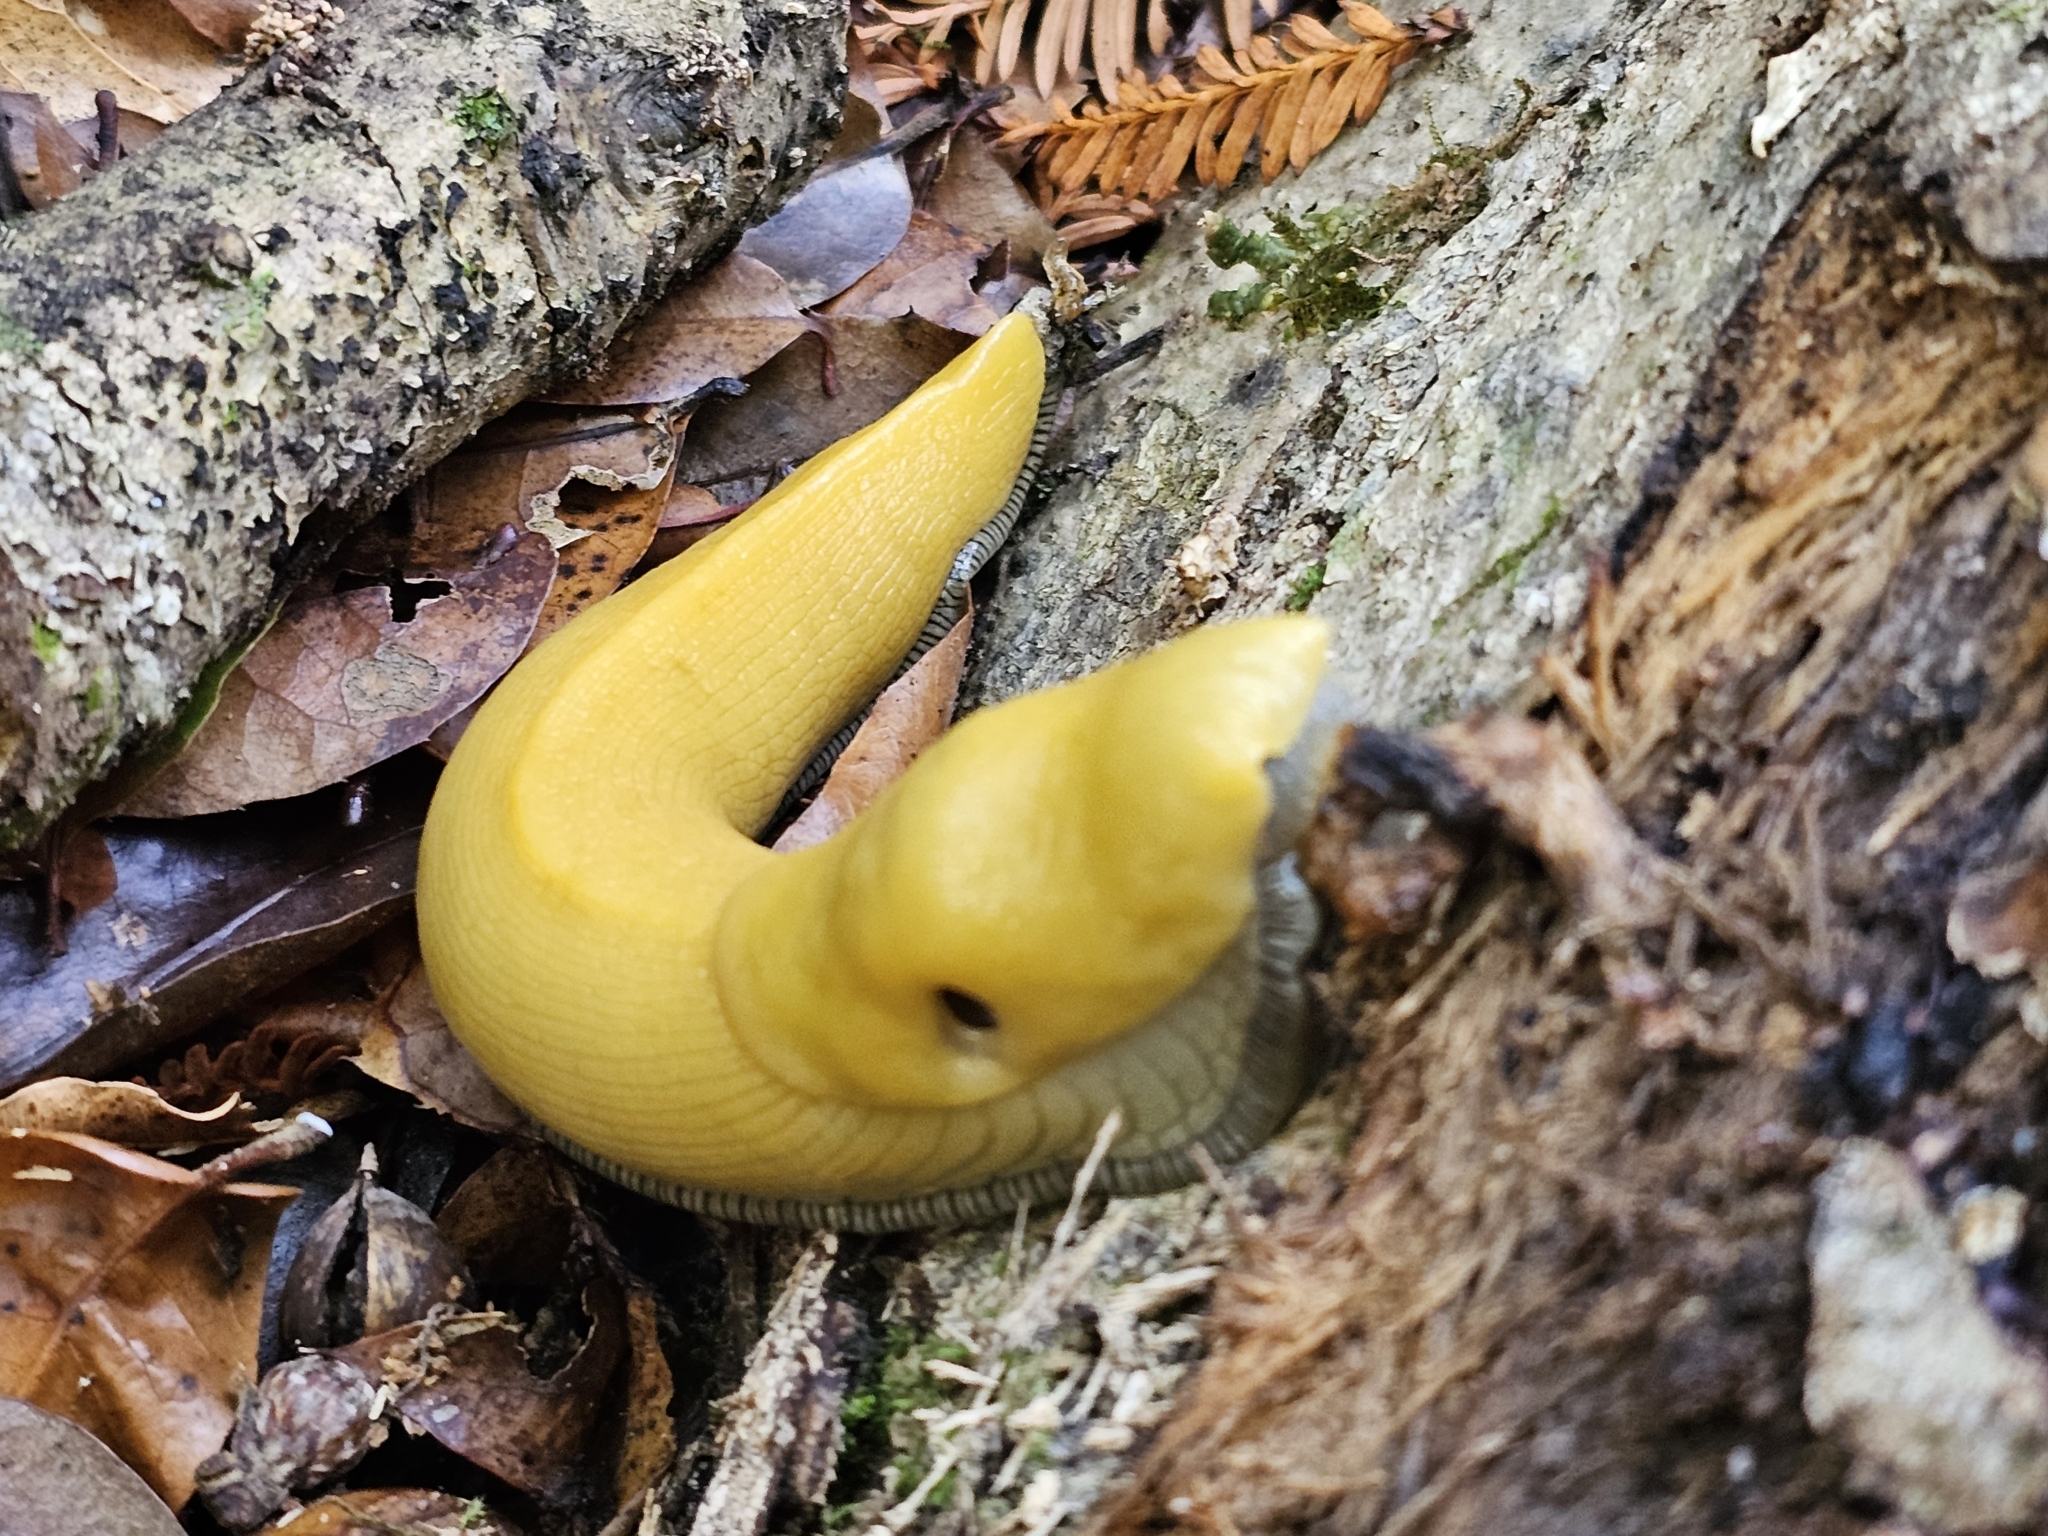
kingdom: Animalia
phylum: Mollusca
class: Gastropoda
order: Stylommatophora
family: Ariolimacidae
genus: Ariolimax
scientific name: Ariolimax dolichophallus
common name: Slender banana slug
